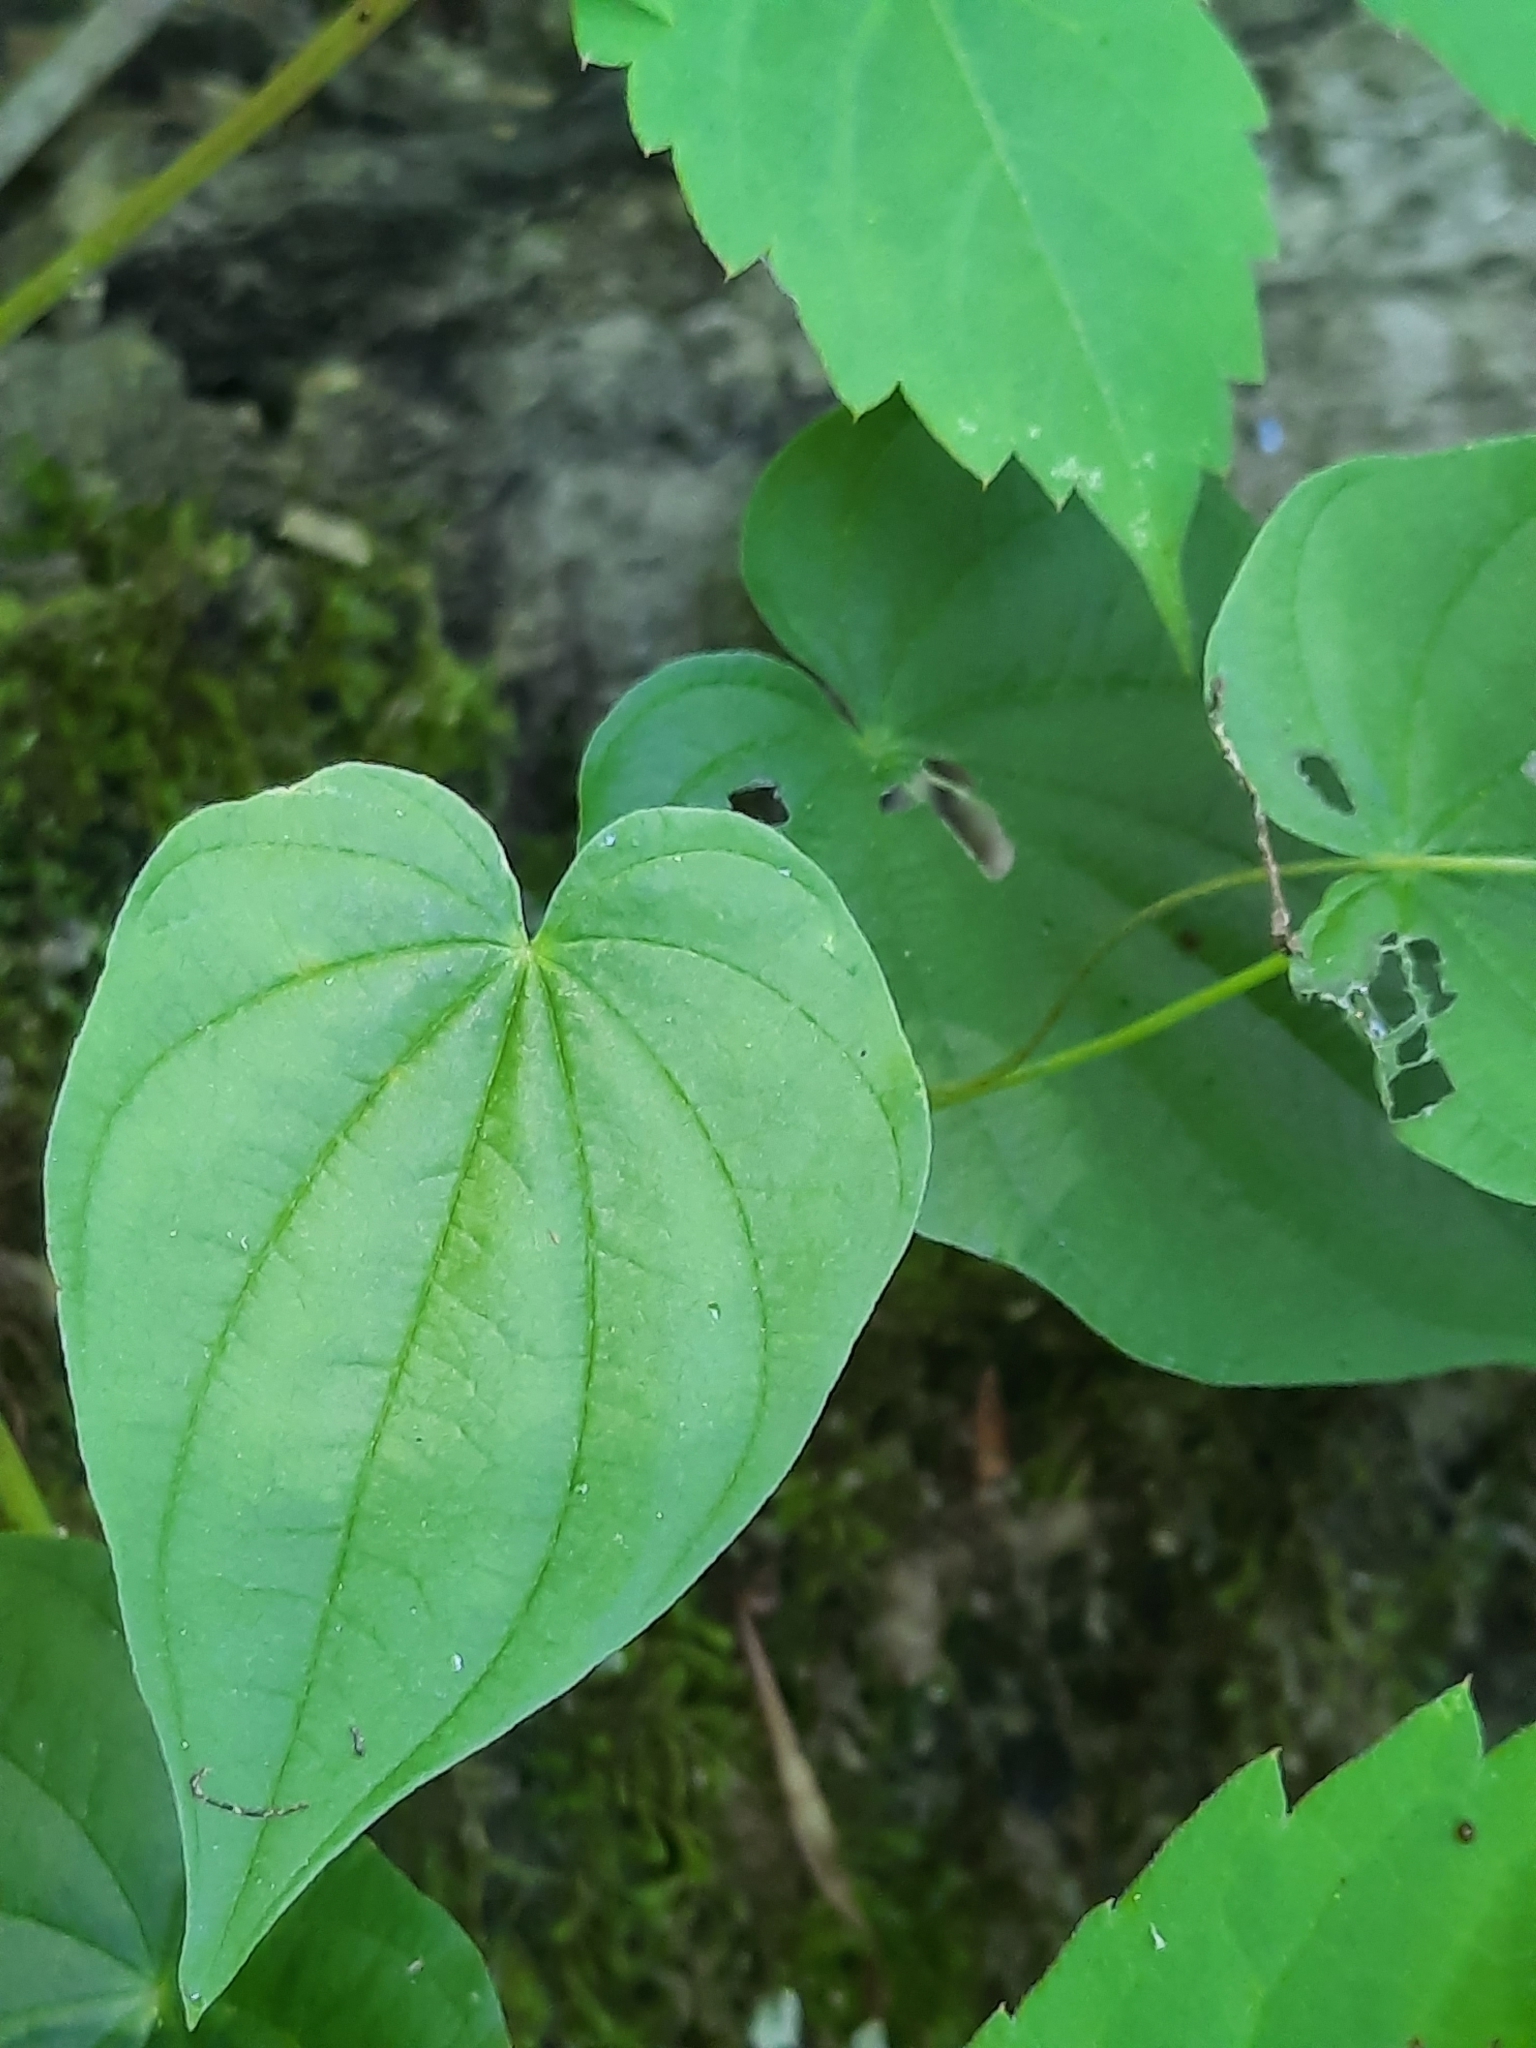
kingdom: Plantae
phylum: Tracheophyta
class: Liliopsida
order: Dioscoreales
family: Dioscoreaceae
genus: Dioscorea
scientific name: Dioscorea villosa
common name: Wild yam
